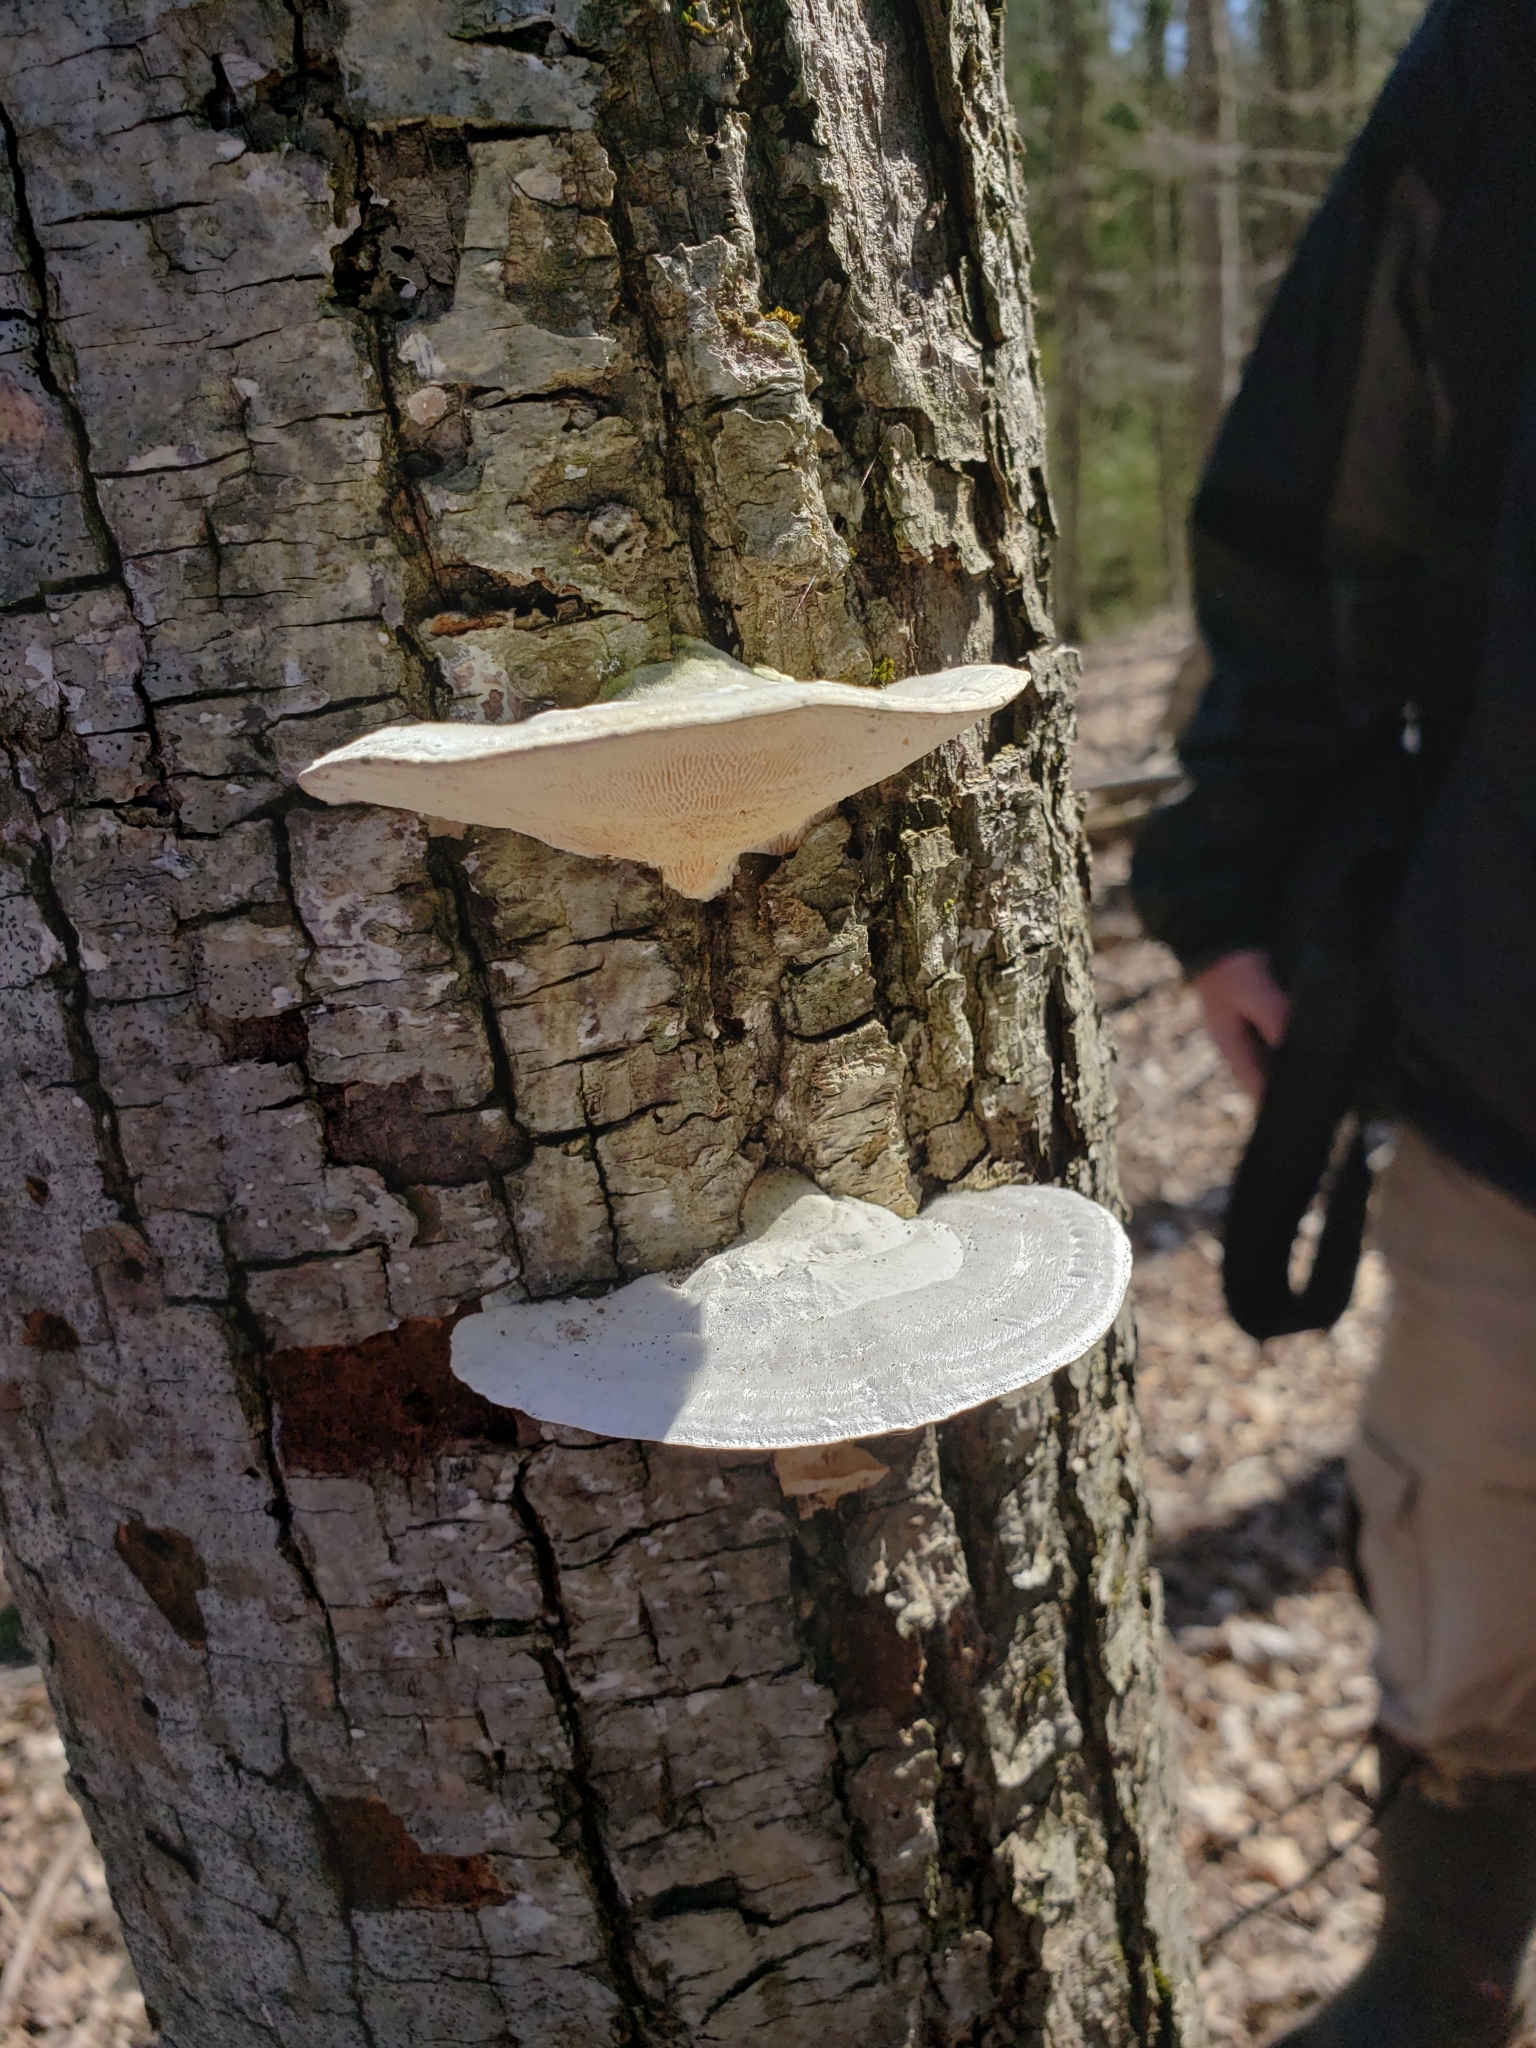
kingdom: Fungi
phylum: Basidiomycota
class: Agaricomycetes
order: Polyporales
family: Polyporaceae
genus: Trametes
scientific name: Trametes gibbosa
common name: Lumpy bracket
